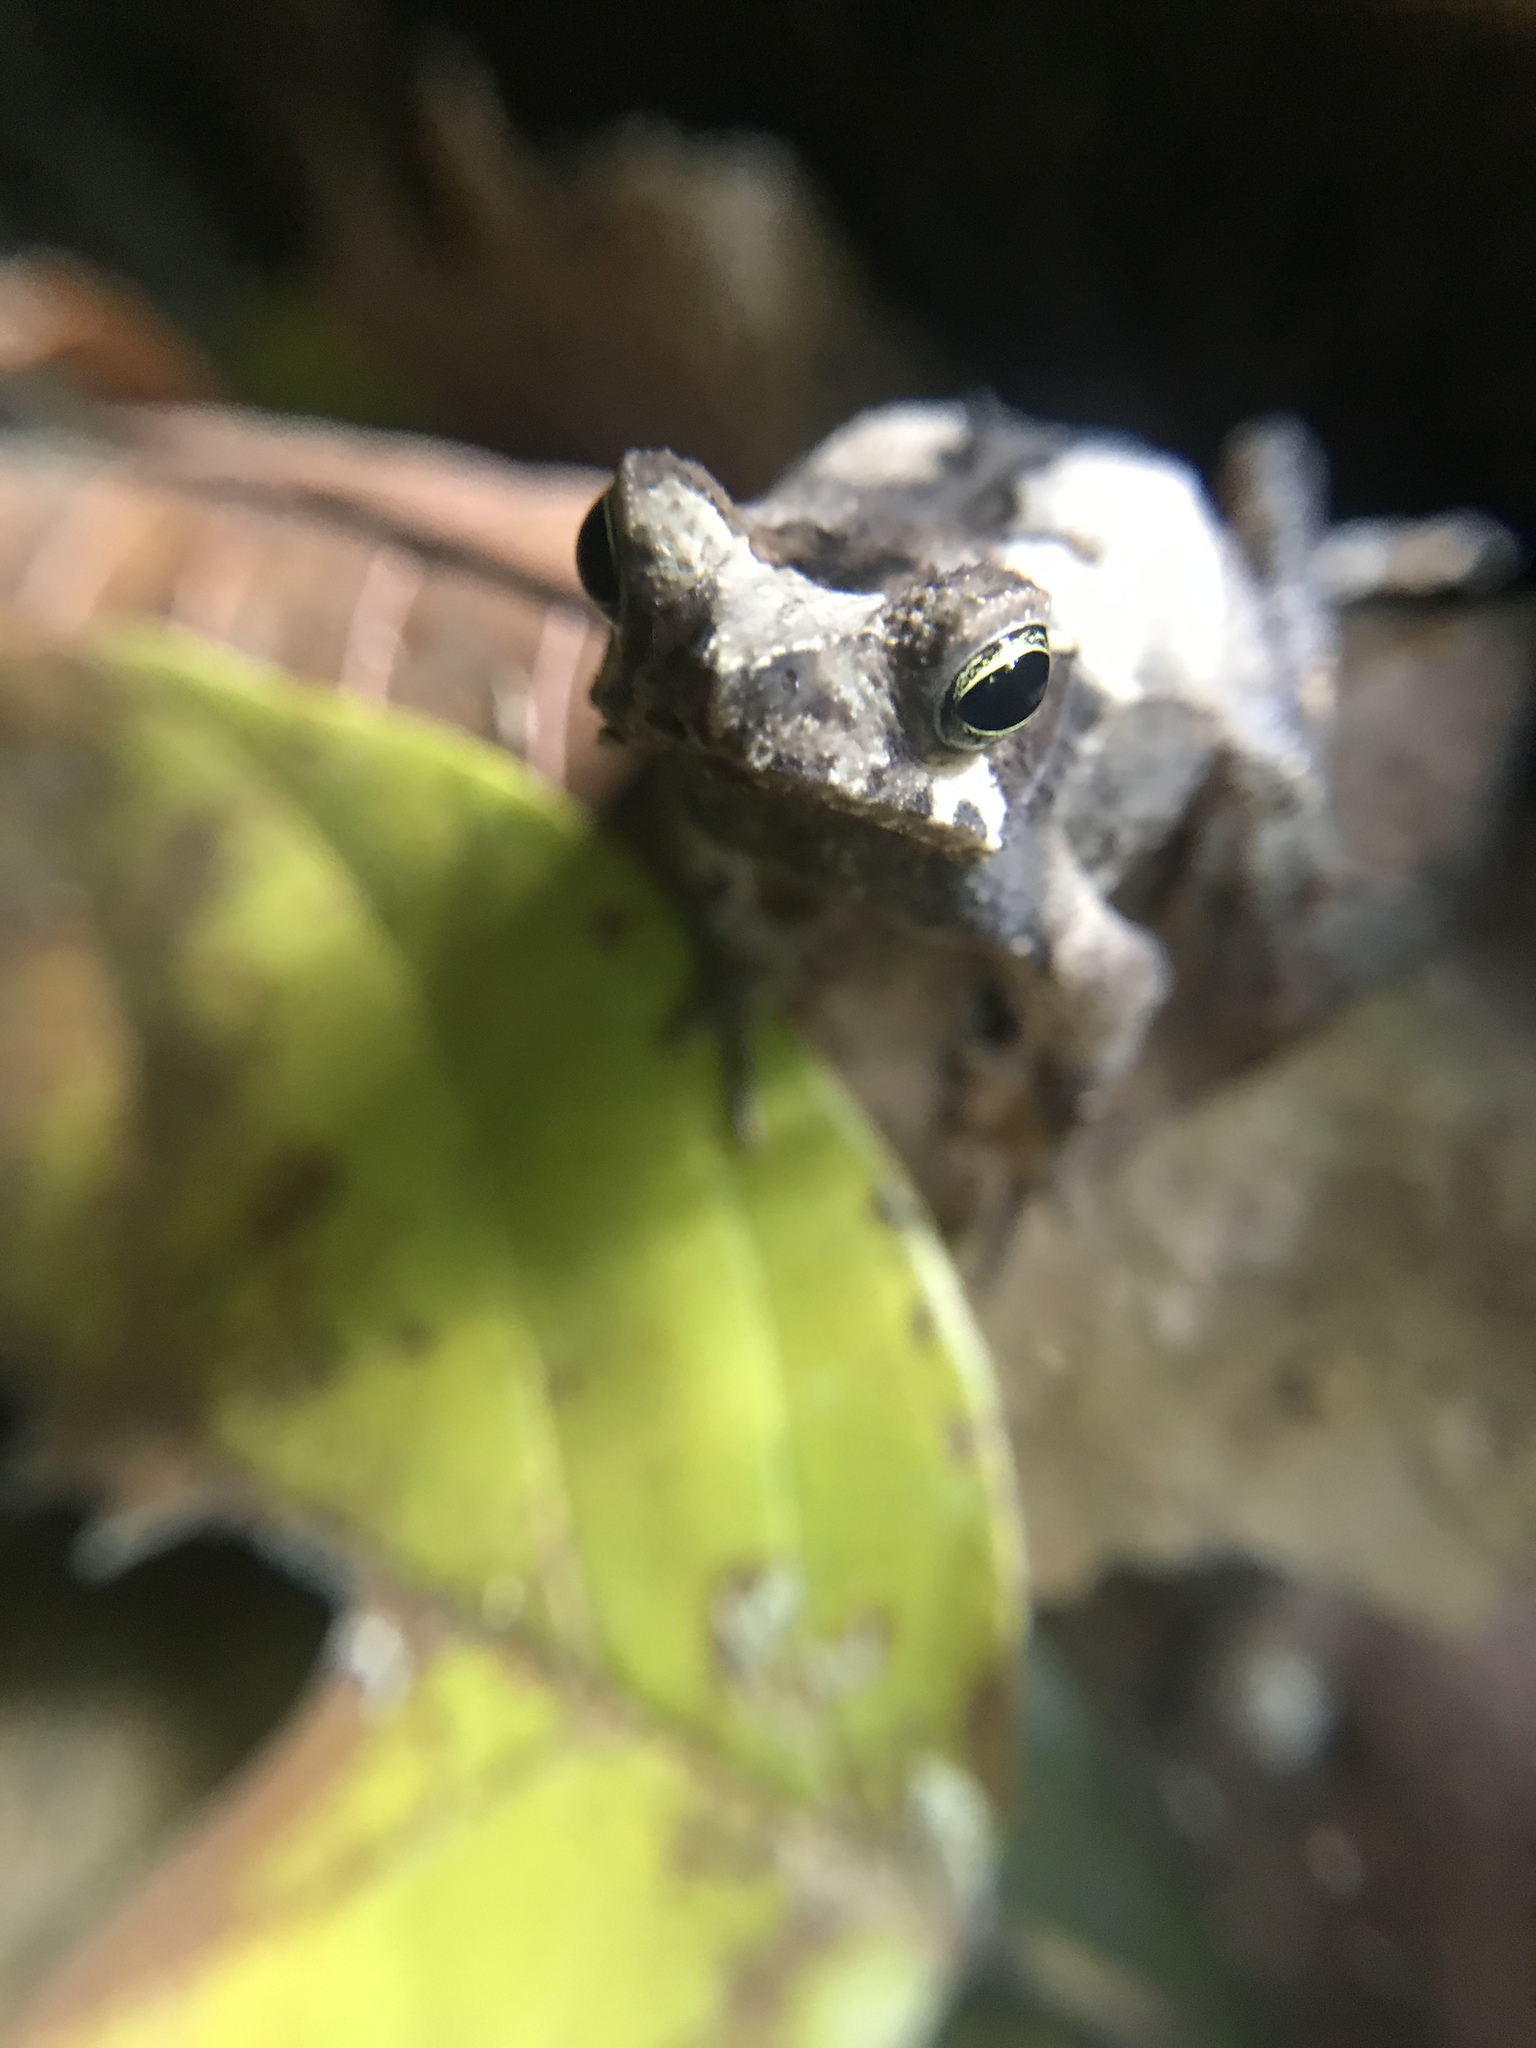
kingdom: Animalia
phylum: Chordata
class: Amphibia
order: Anura
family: Bufonidae
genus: Rhinella
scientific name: Rhinella alata
